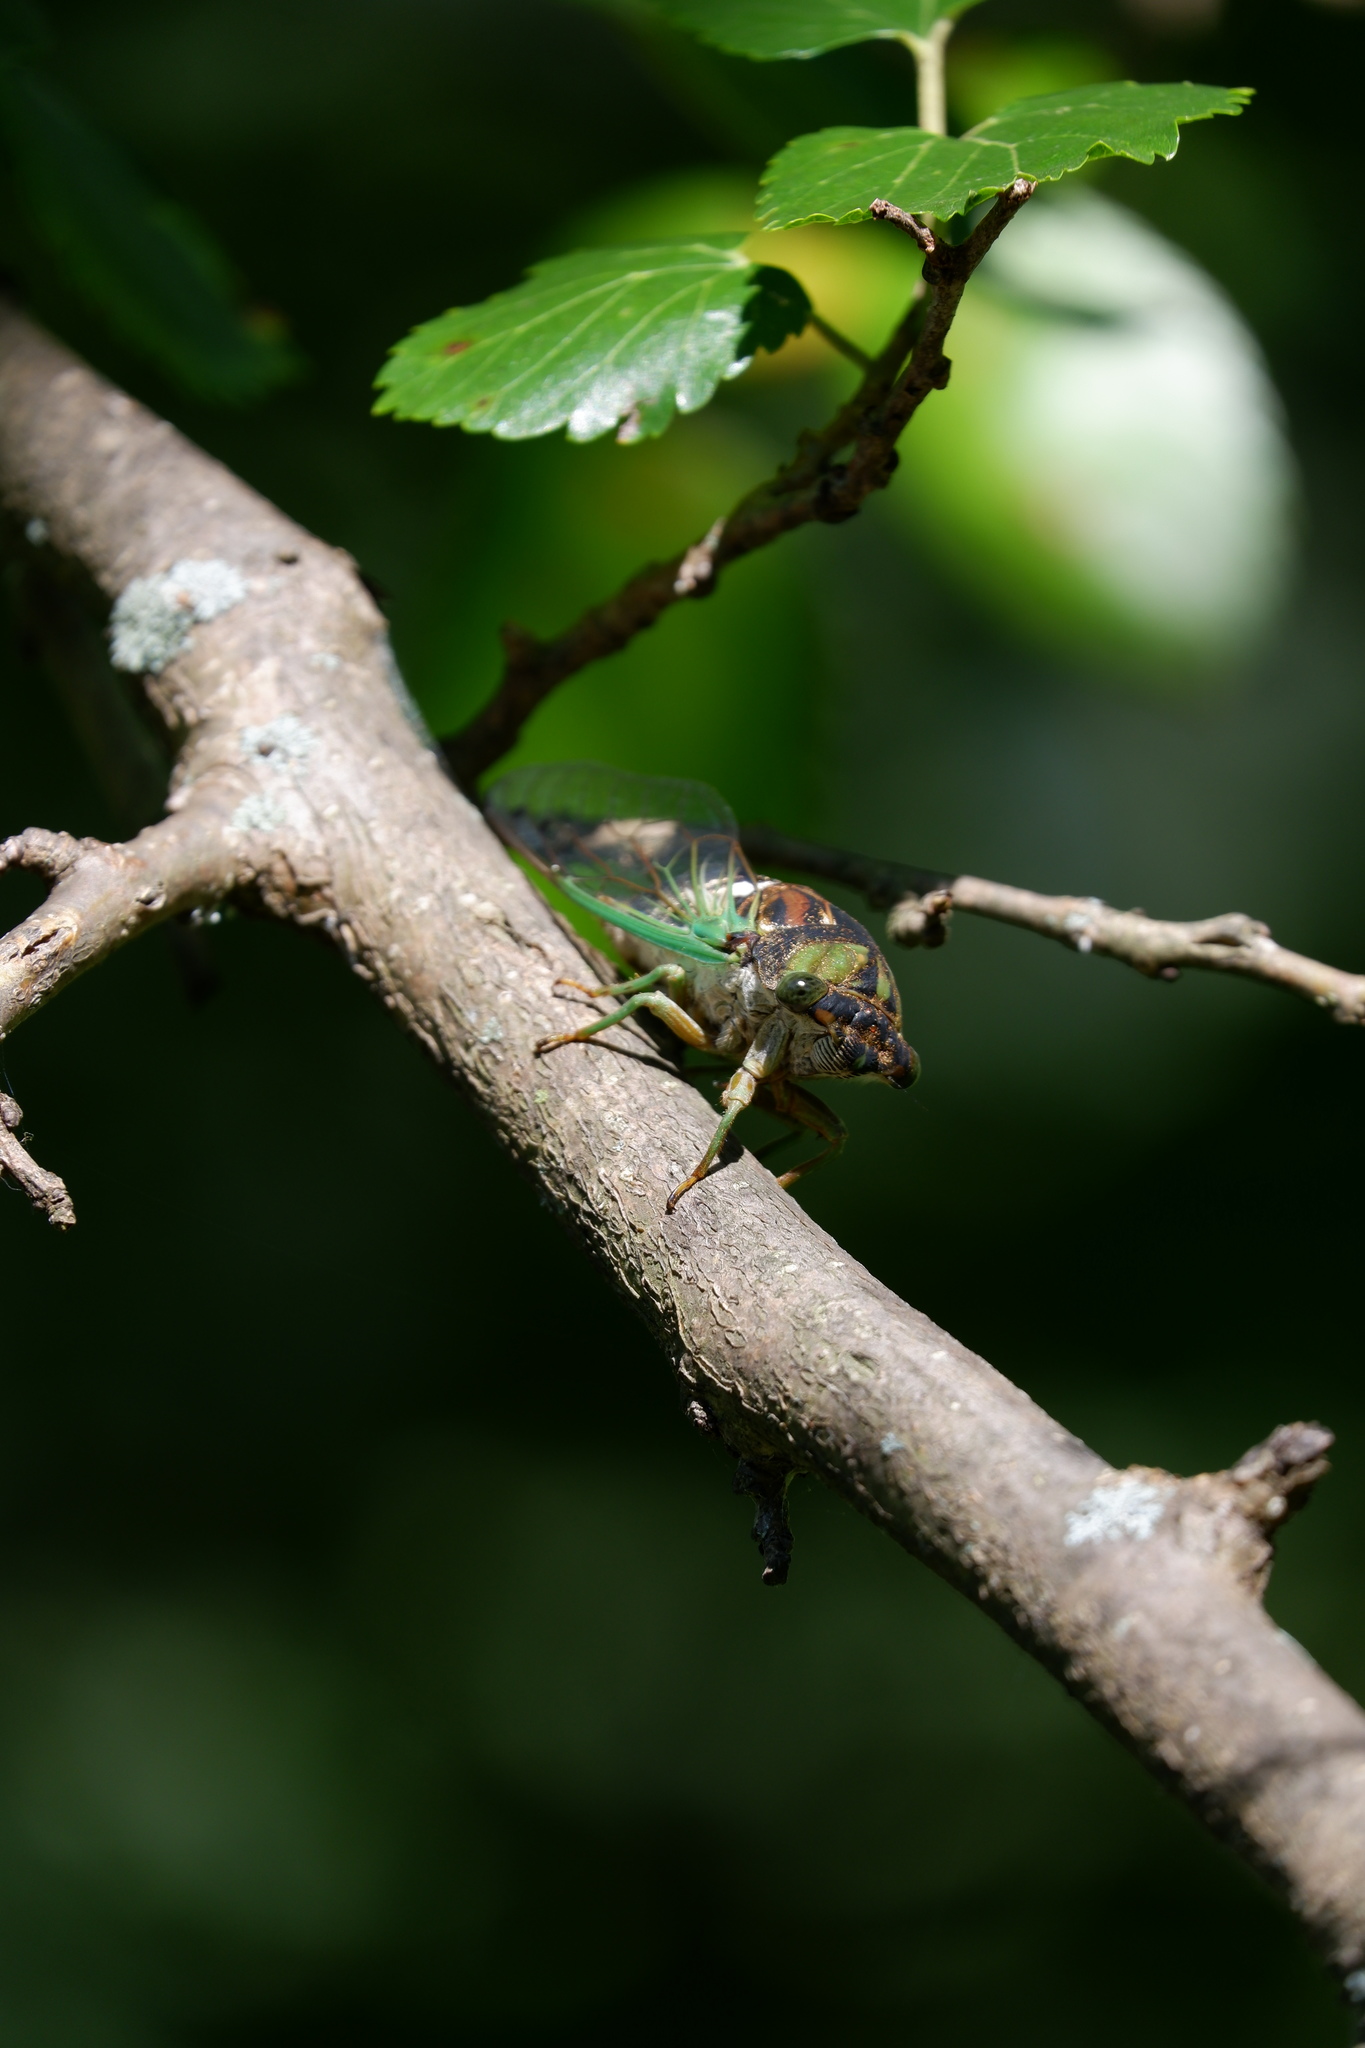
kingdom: Animalia
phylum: Arthropoda
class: Insecta
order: Hemiptera
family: Cicadidae
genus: Neotibicen
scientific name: Neotibicen tibicen
